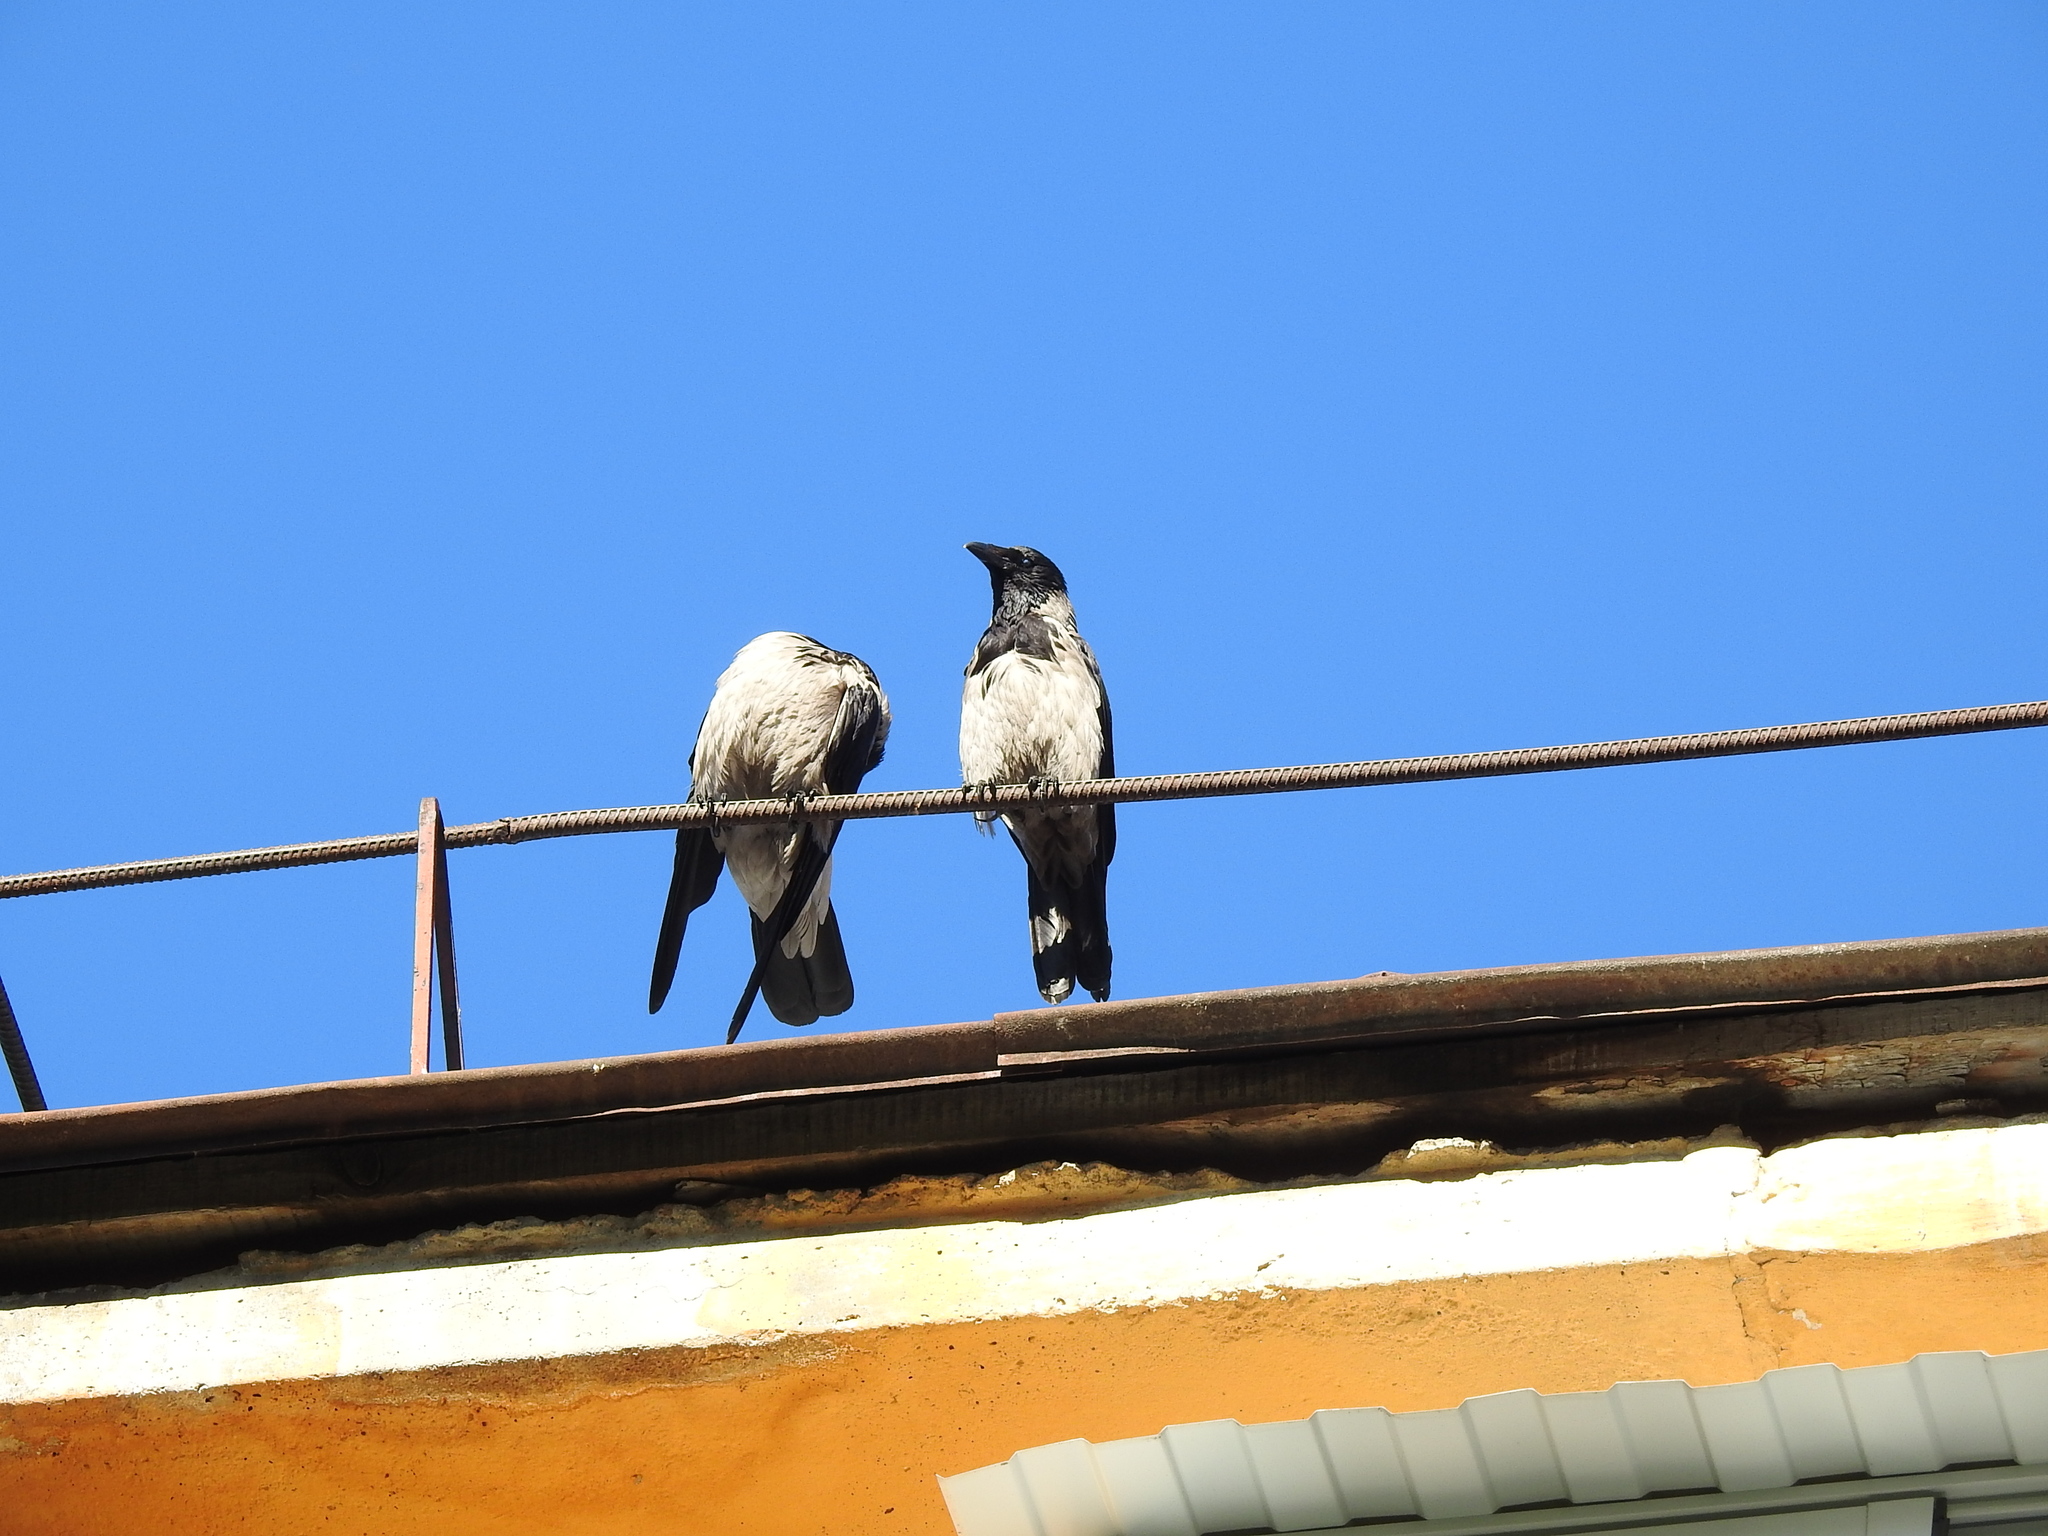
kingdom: Animalia
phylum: Chordata
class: Aves
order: Passeriformes
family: Corvidae
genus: Corvus
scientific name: Corvus cornix
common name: Hooded crow
